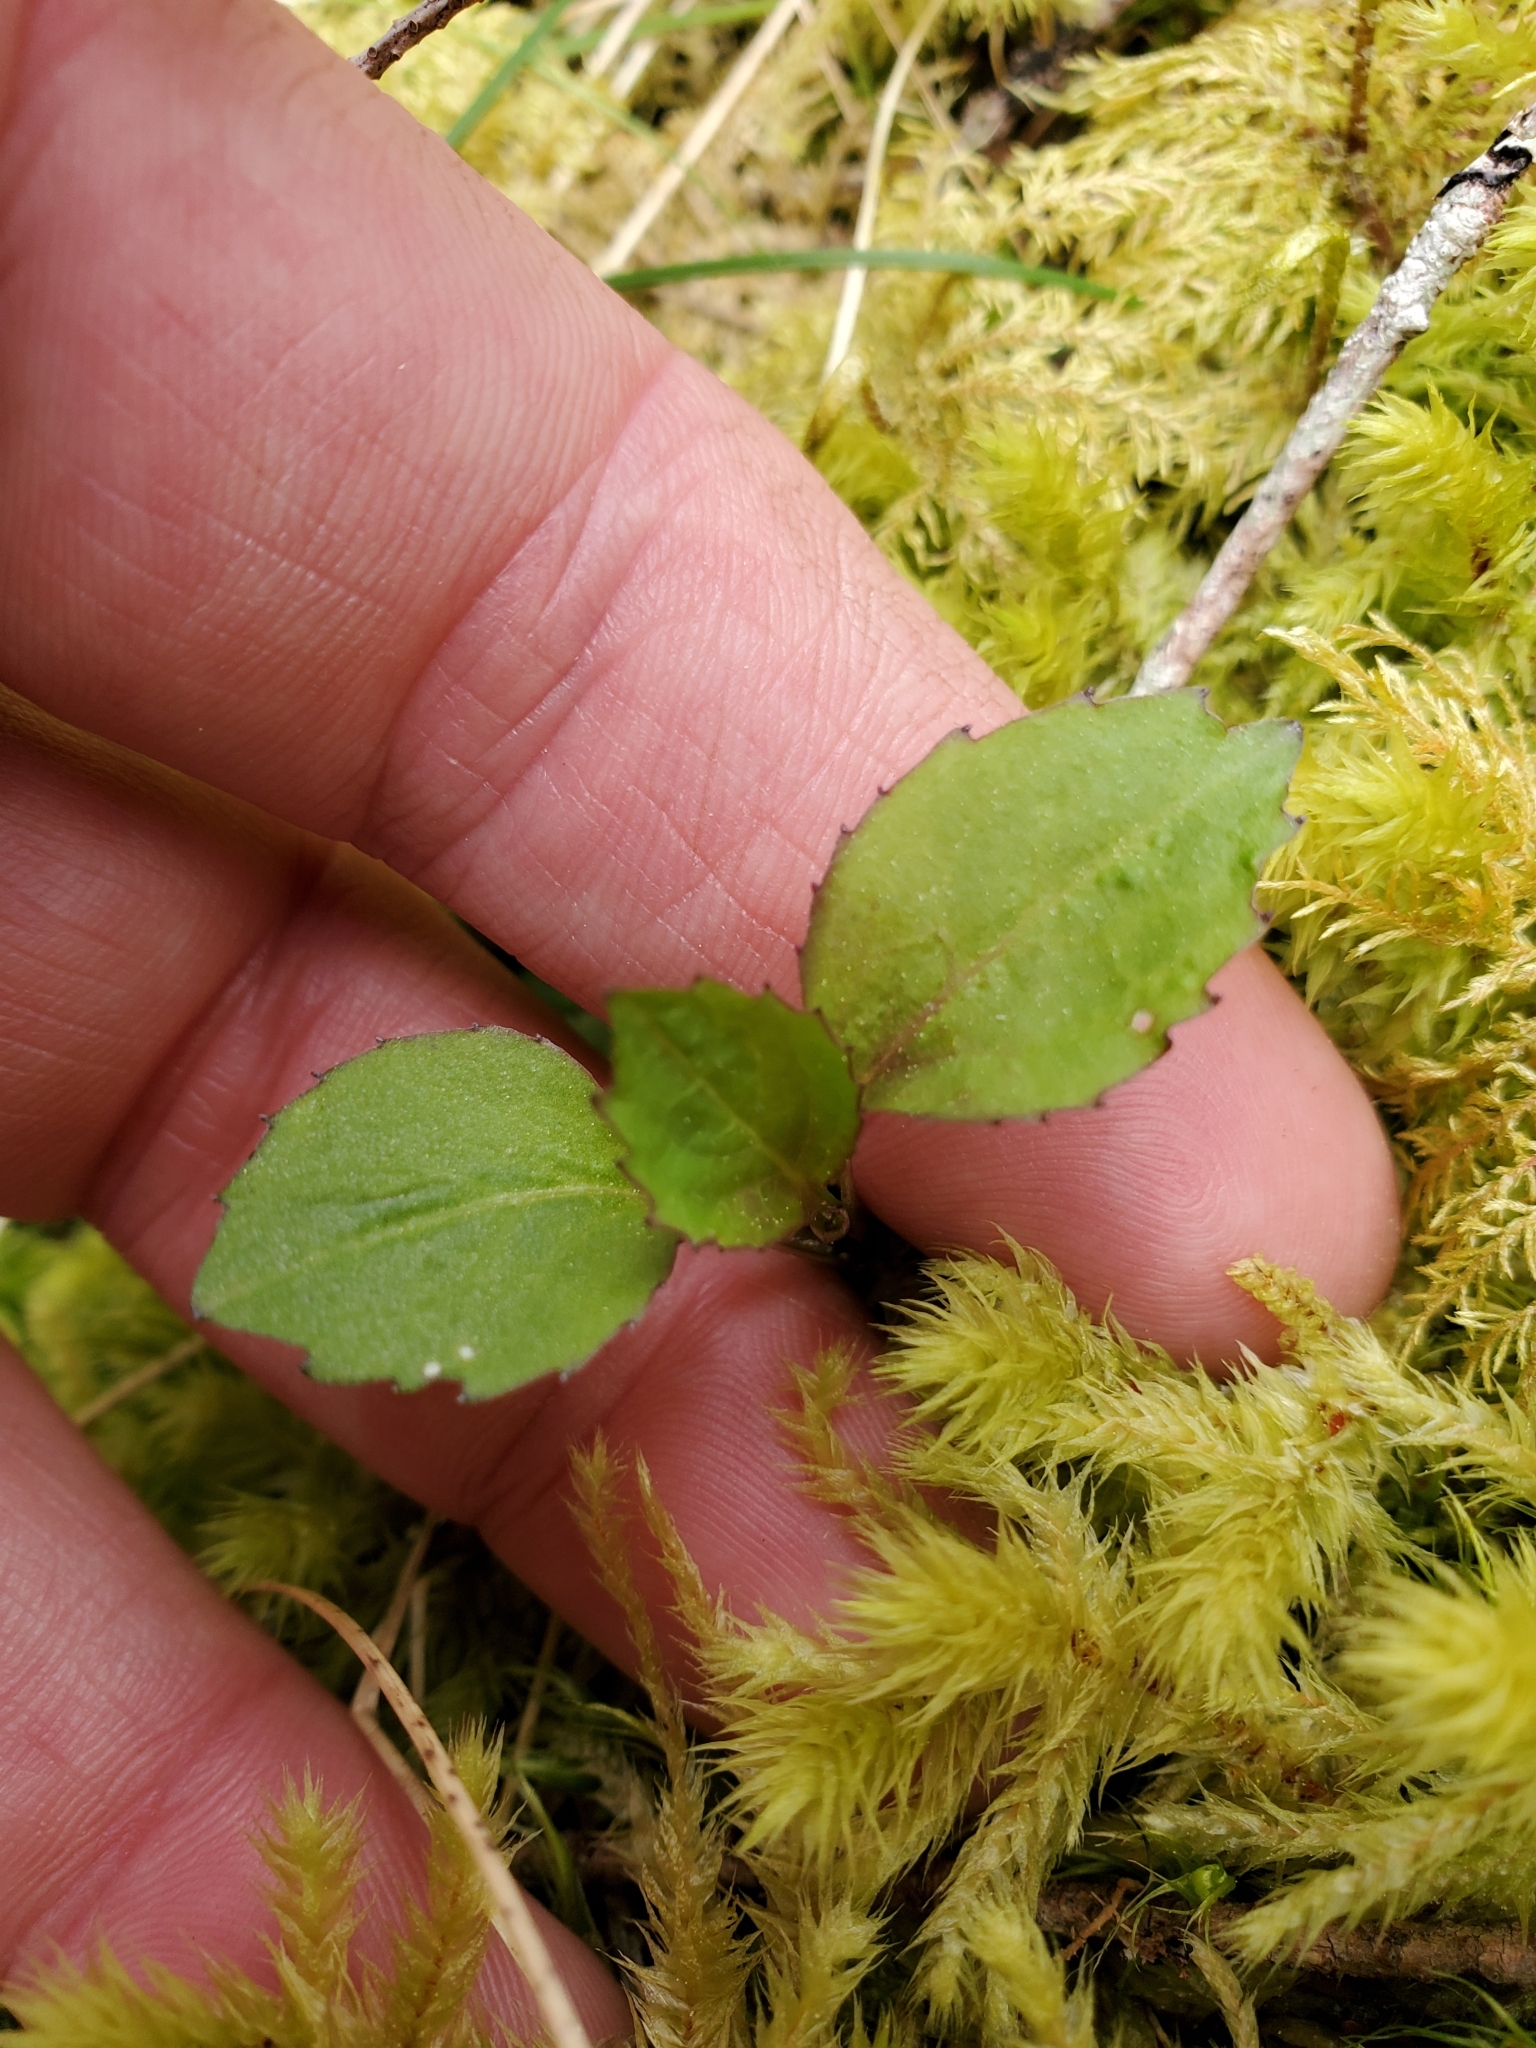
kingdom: Plantae
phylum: Tracheophyta
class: Magnoliopsida
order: Asterales
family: Campanulaceae
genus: Campanula
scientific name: Campanula scouleri
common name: Scouler's harebell
